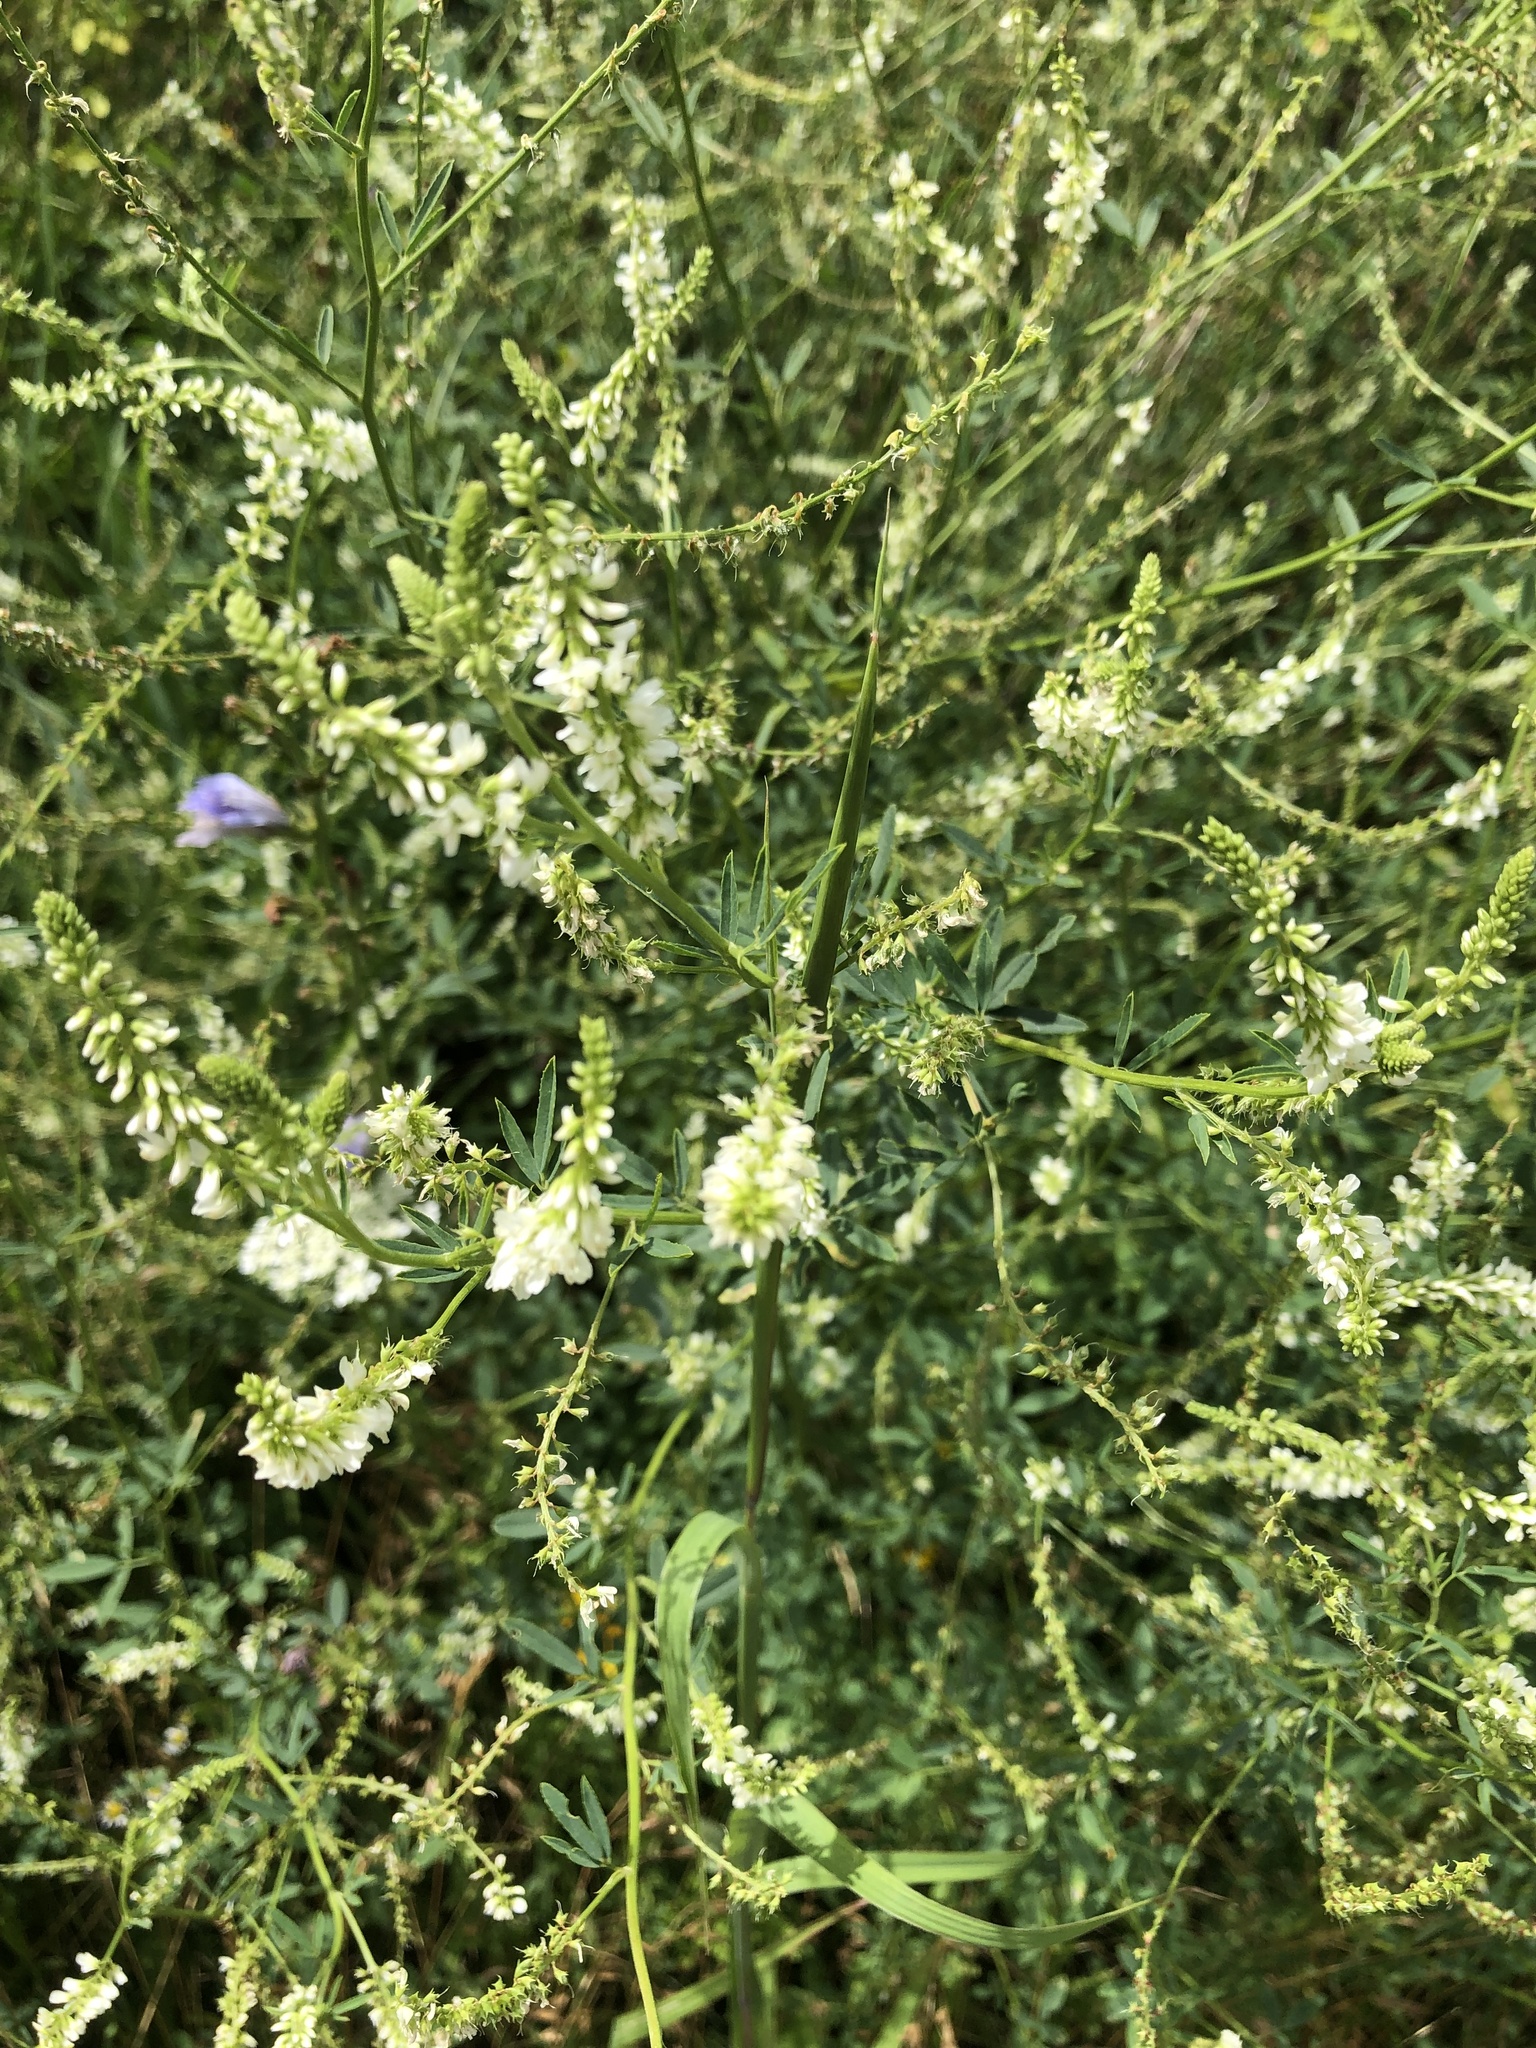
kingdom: Plantae
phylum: Tracheophyta
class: Magnoliopsida
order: Fabales
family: Fabaceae
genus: Melilotus
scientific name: Melilotus albus
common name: White melilot
